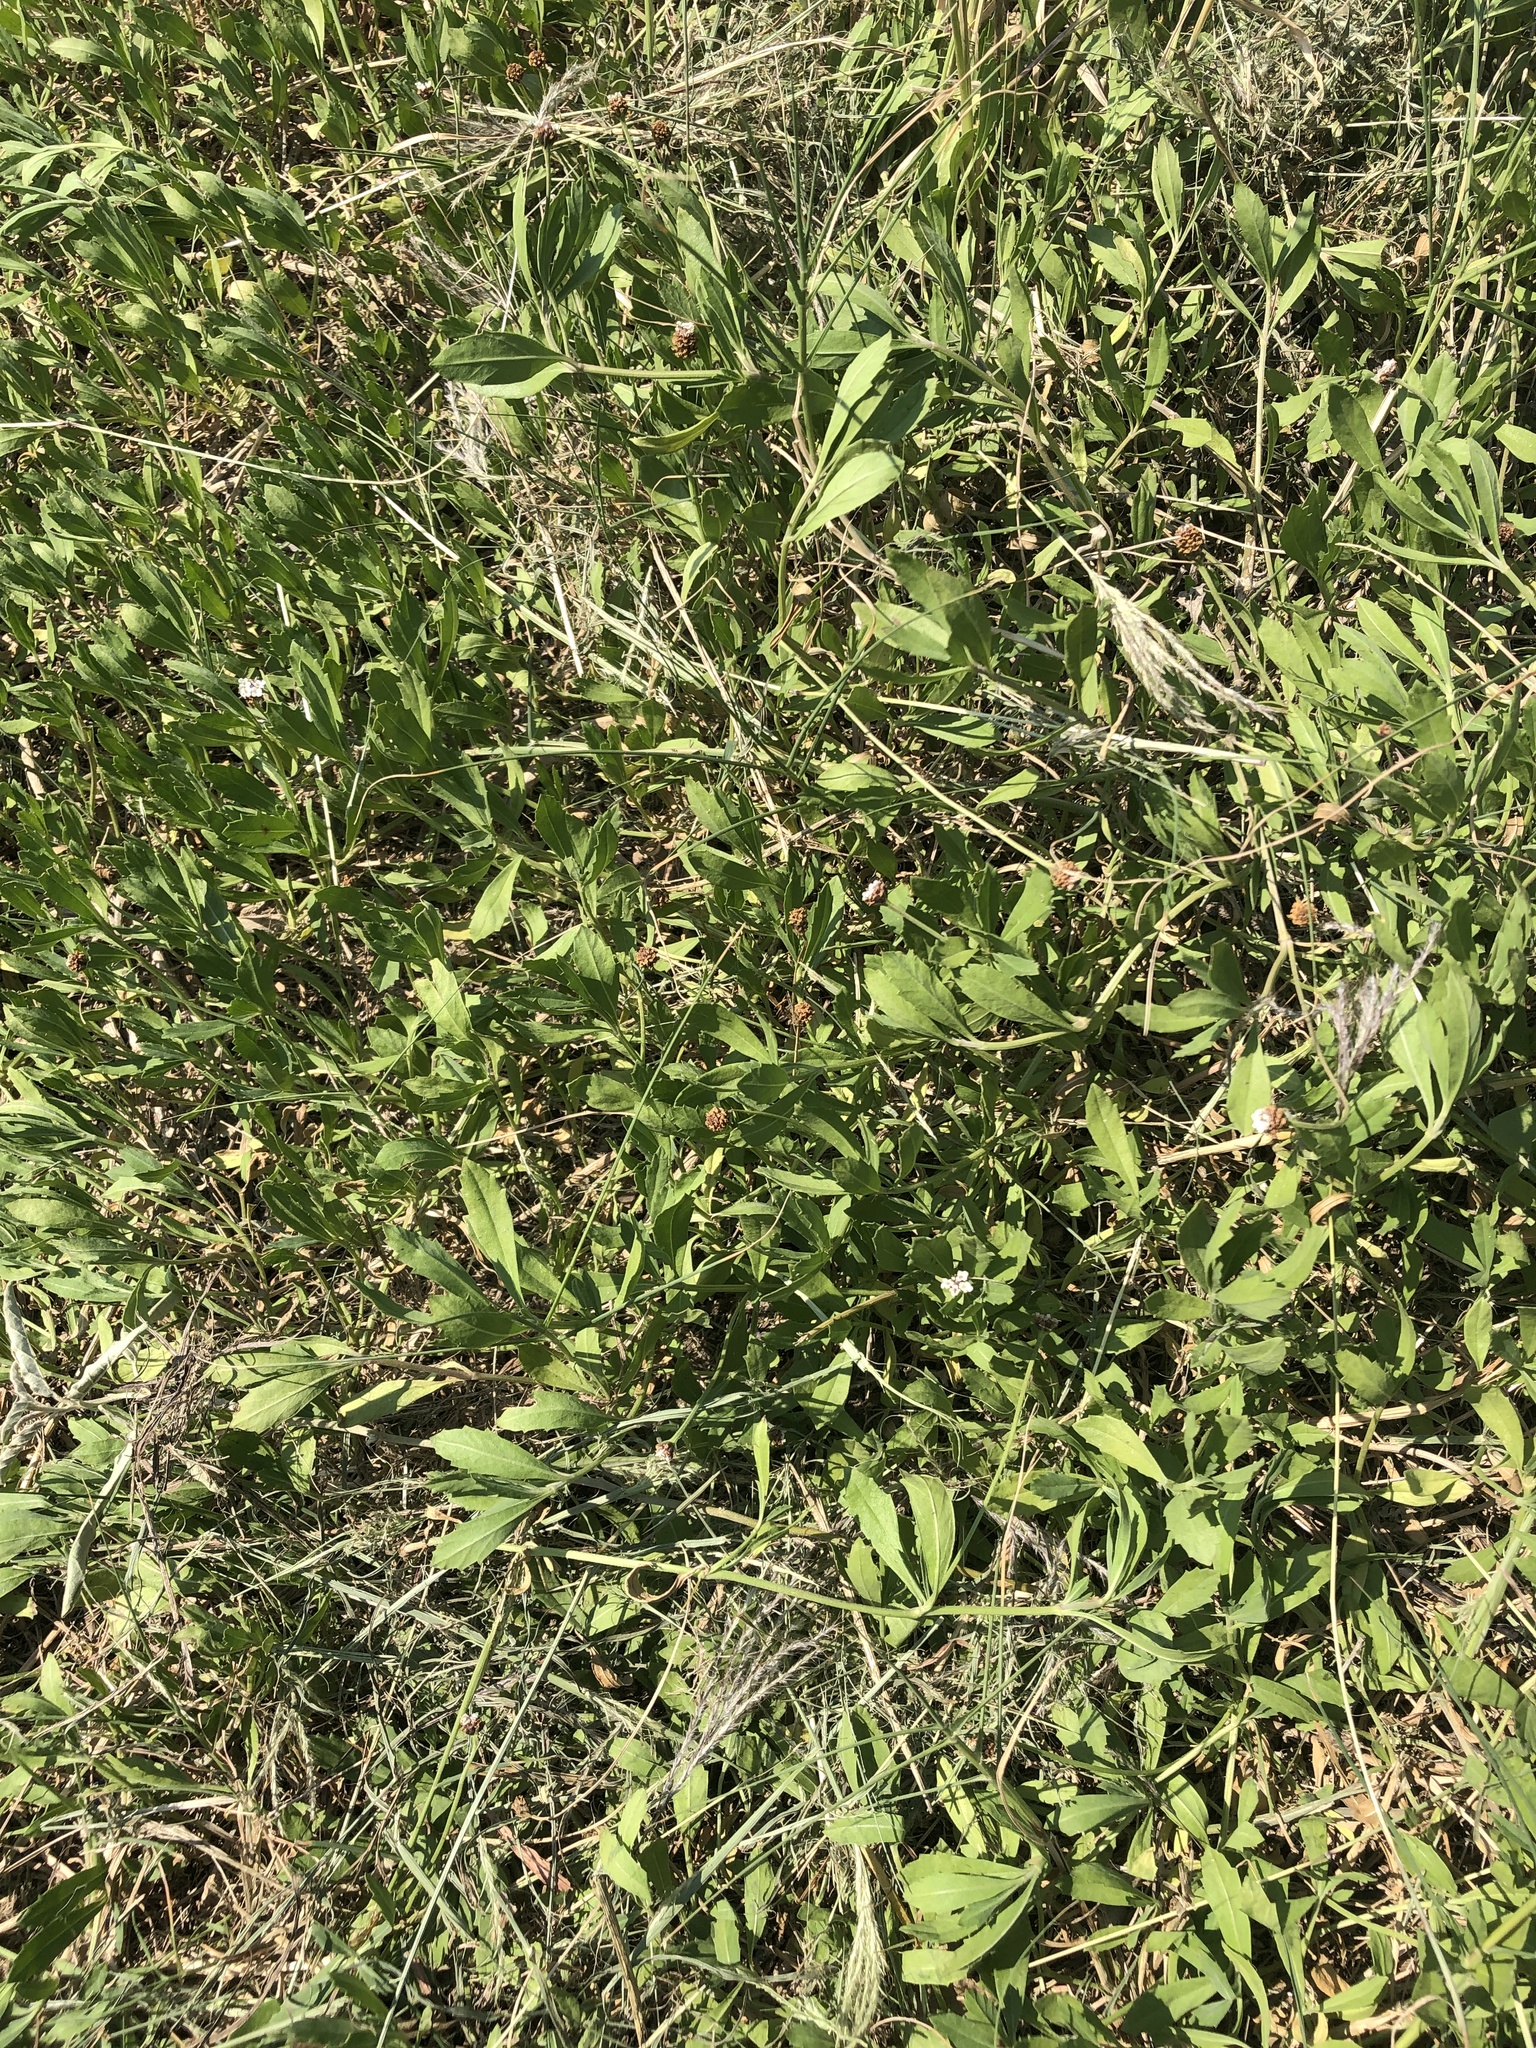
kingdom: Plantae
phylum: Tracheophyta
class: Magnoliopsida
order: Lamiales
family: Verbenaceae
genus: Phyla
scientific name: Phyla nodiflora
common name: Frogfruit
